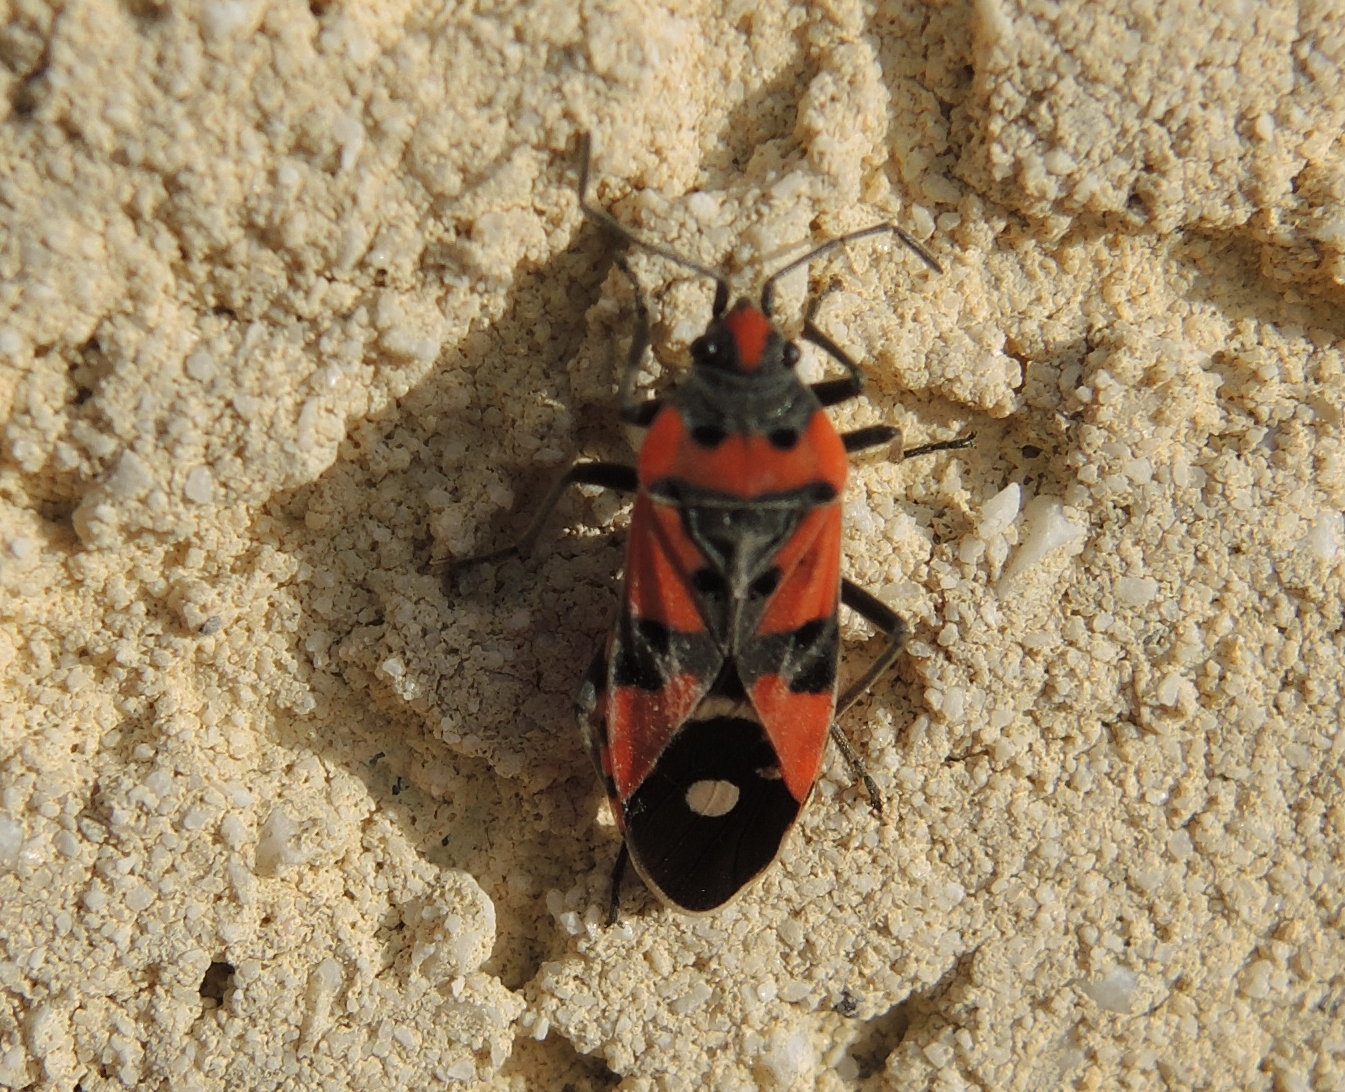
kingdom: Animalia
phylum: Arthropoda
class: Insecta
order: Hemiptera
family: Lygaeidae
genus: Lygaeus
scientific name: Lygaeus equestris
